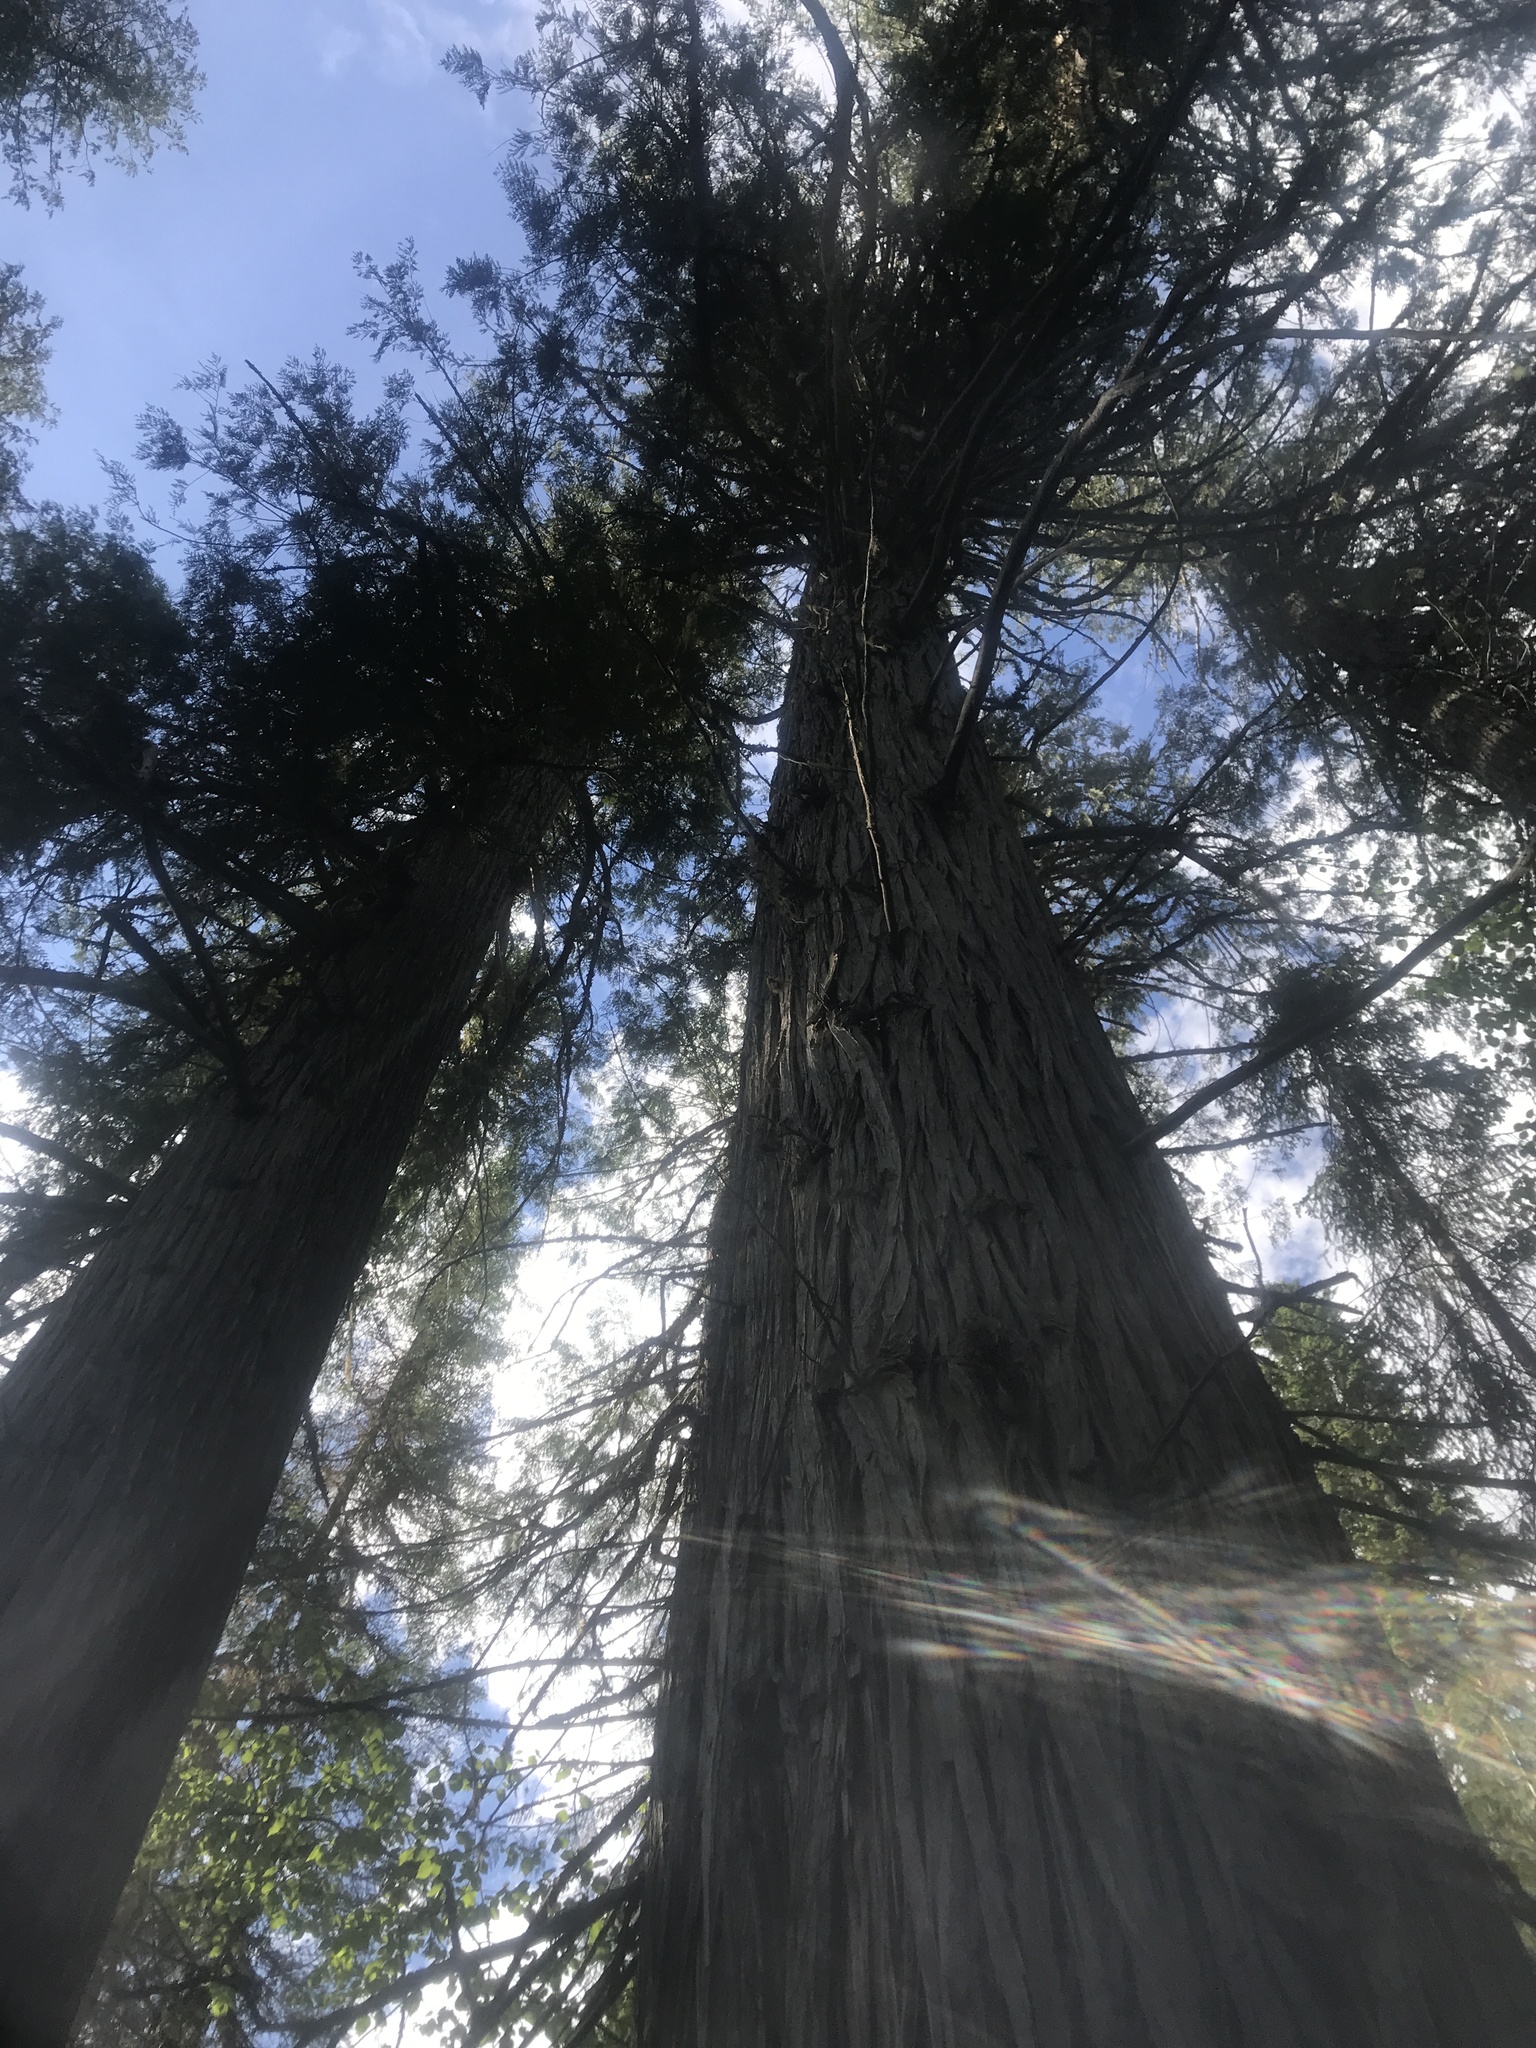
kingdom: Plantae
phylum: Tracheophyta
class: Pinopsida
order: Pinales
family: Cupressaceae
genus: Thuja
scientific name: Thuja plicata
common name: Western red-cedar
